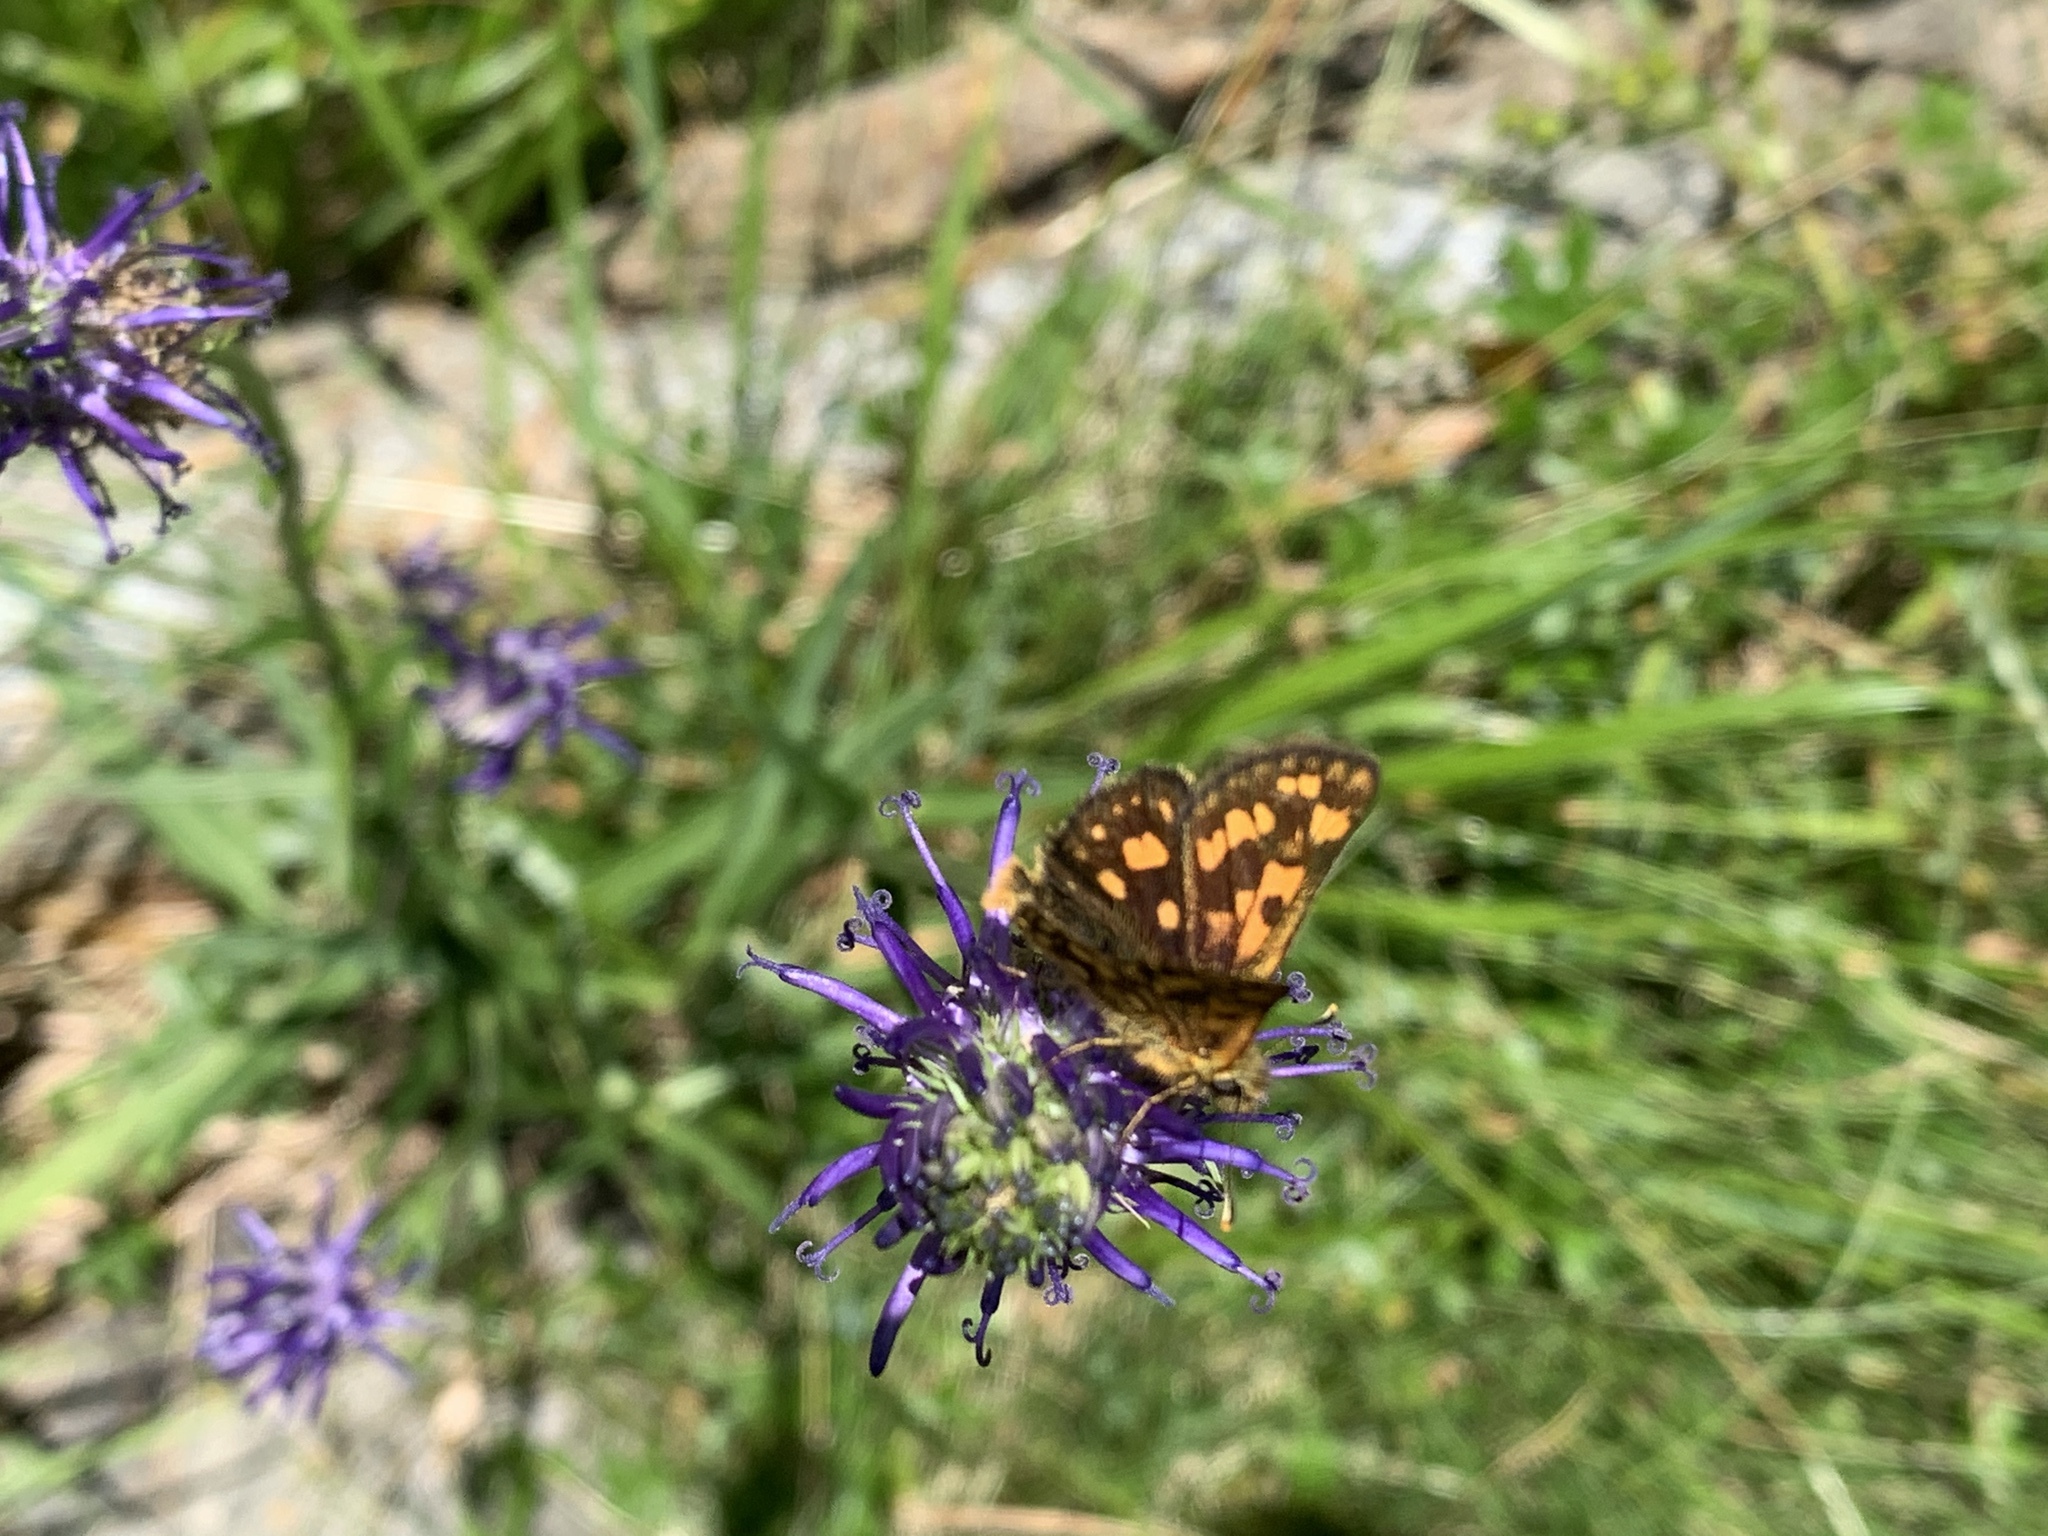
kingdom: Animalia
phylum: Arthropoda
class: Insecta
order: Lepidoptera
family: Hesperiidae
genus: Carterocephalus
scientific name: Carterocephalus palaemon
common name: Chequered skipper
